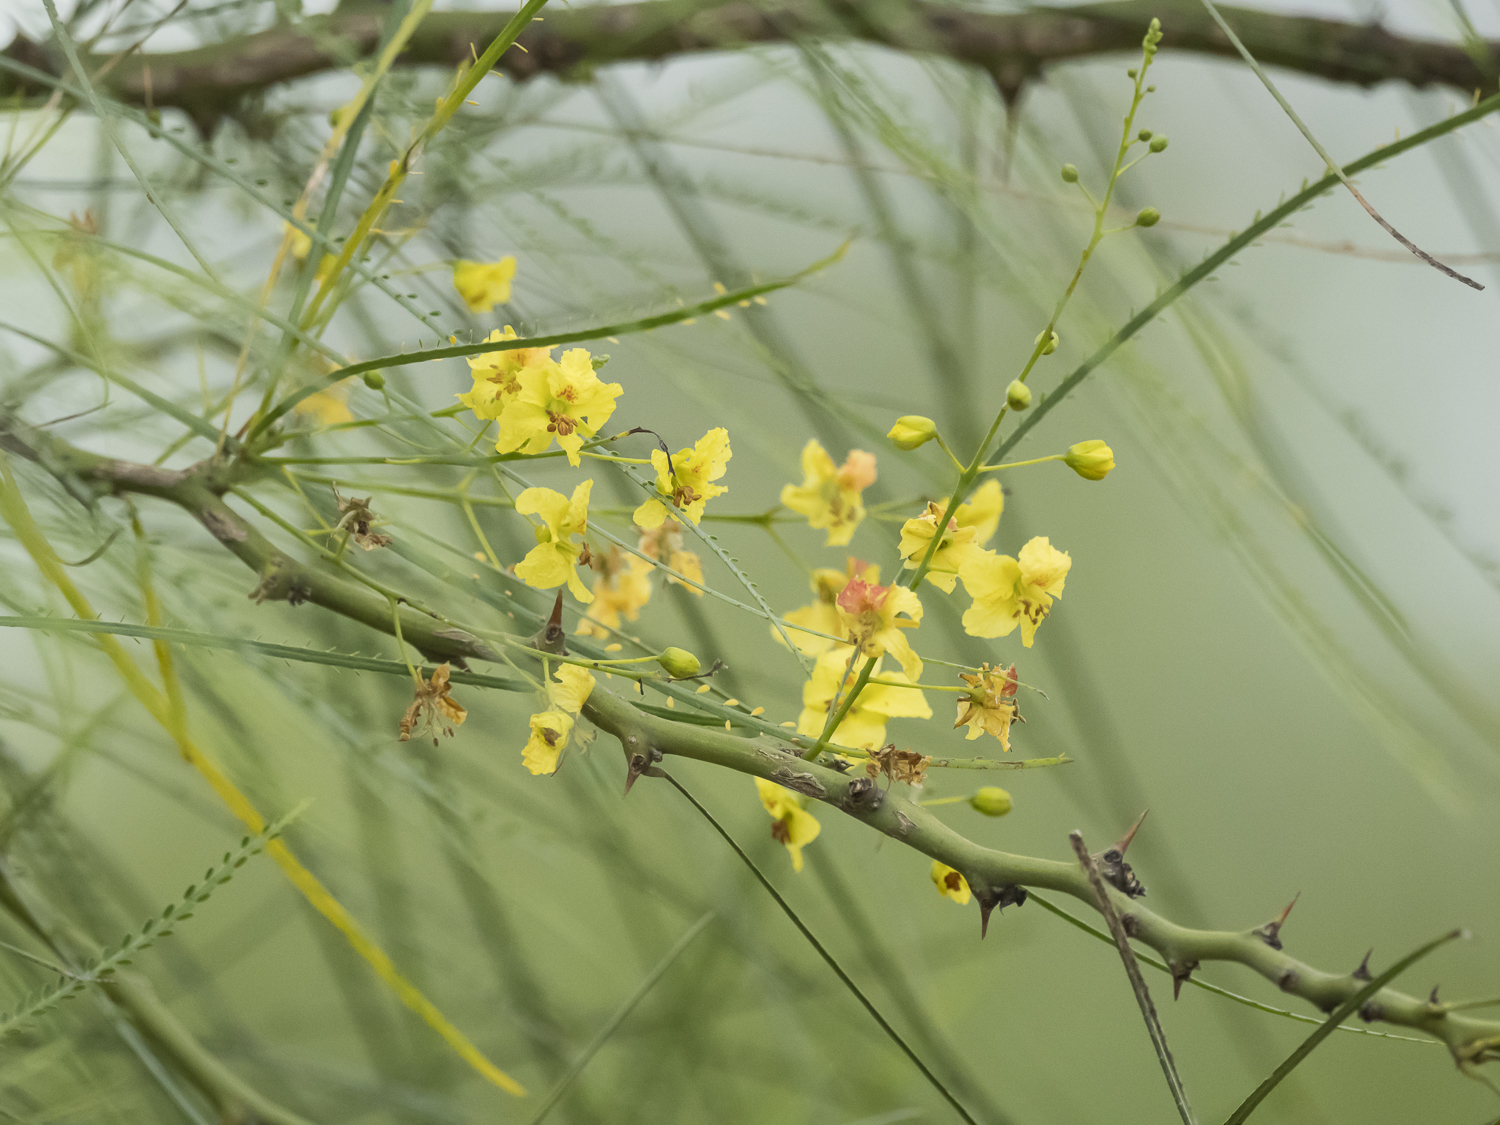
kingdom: Plantae
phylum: Tracheophyta
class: Magnoliopsida
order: Fabales
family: Fabaceae
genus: Parkinsonia
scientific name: Parkinsonia aculeata
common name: Jerusalem thorn
